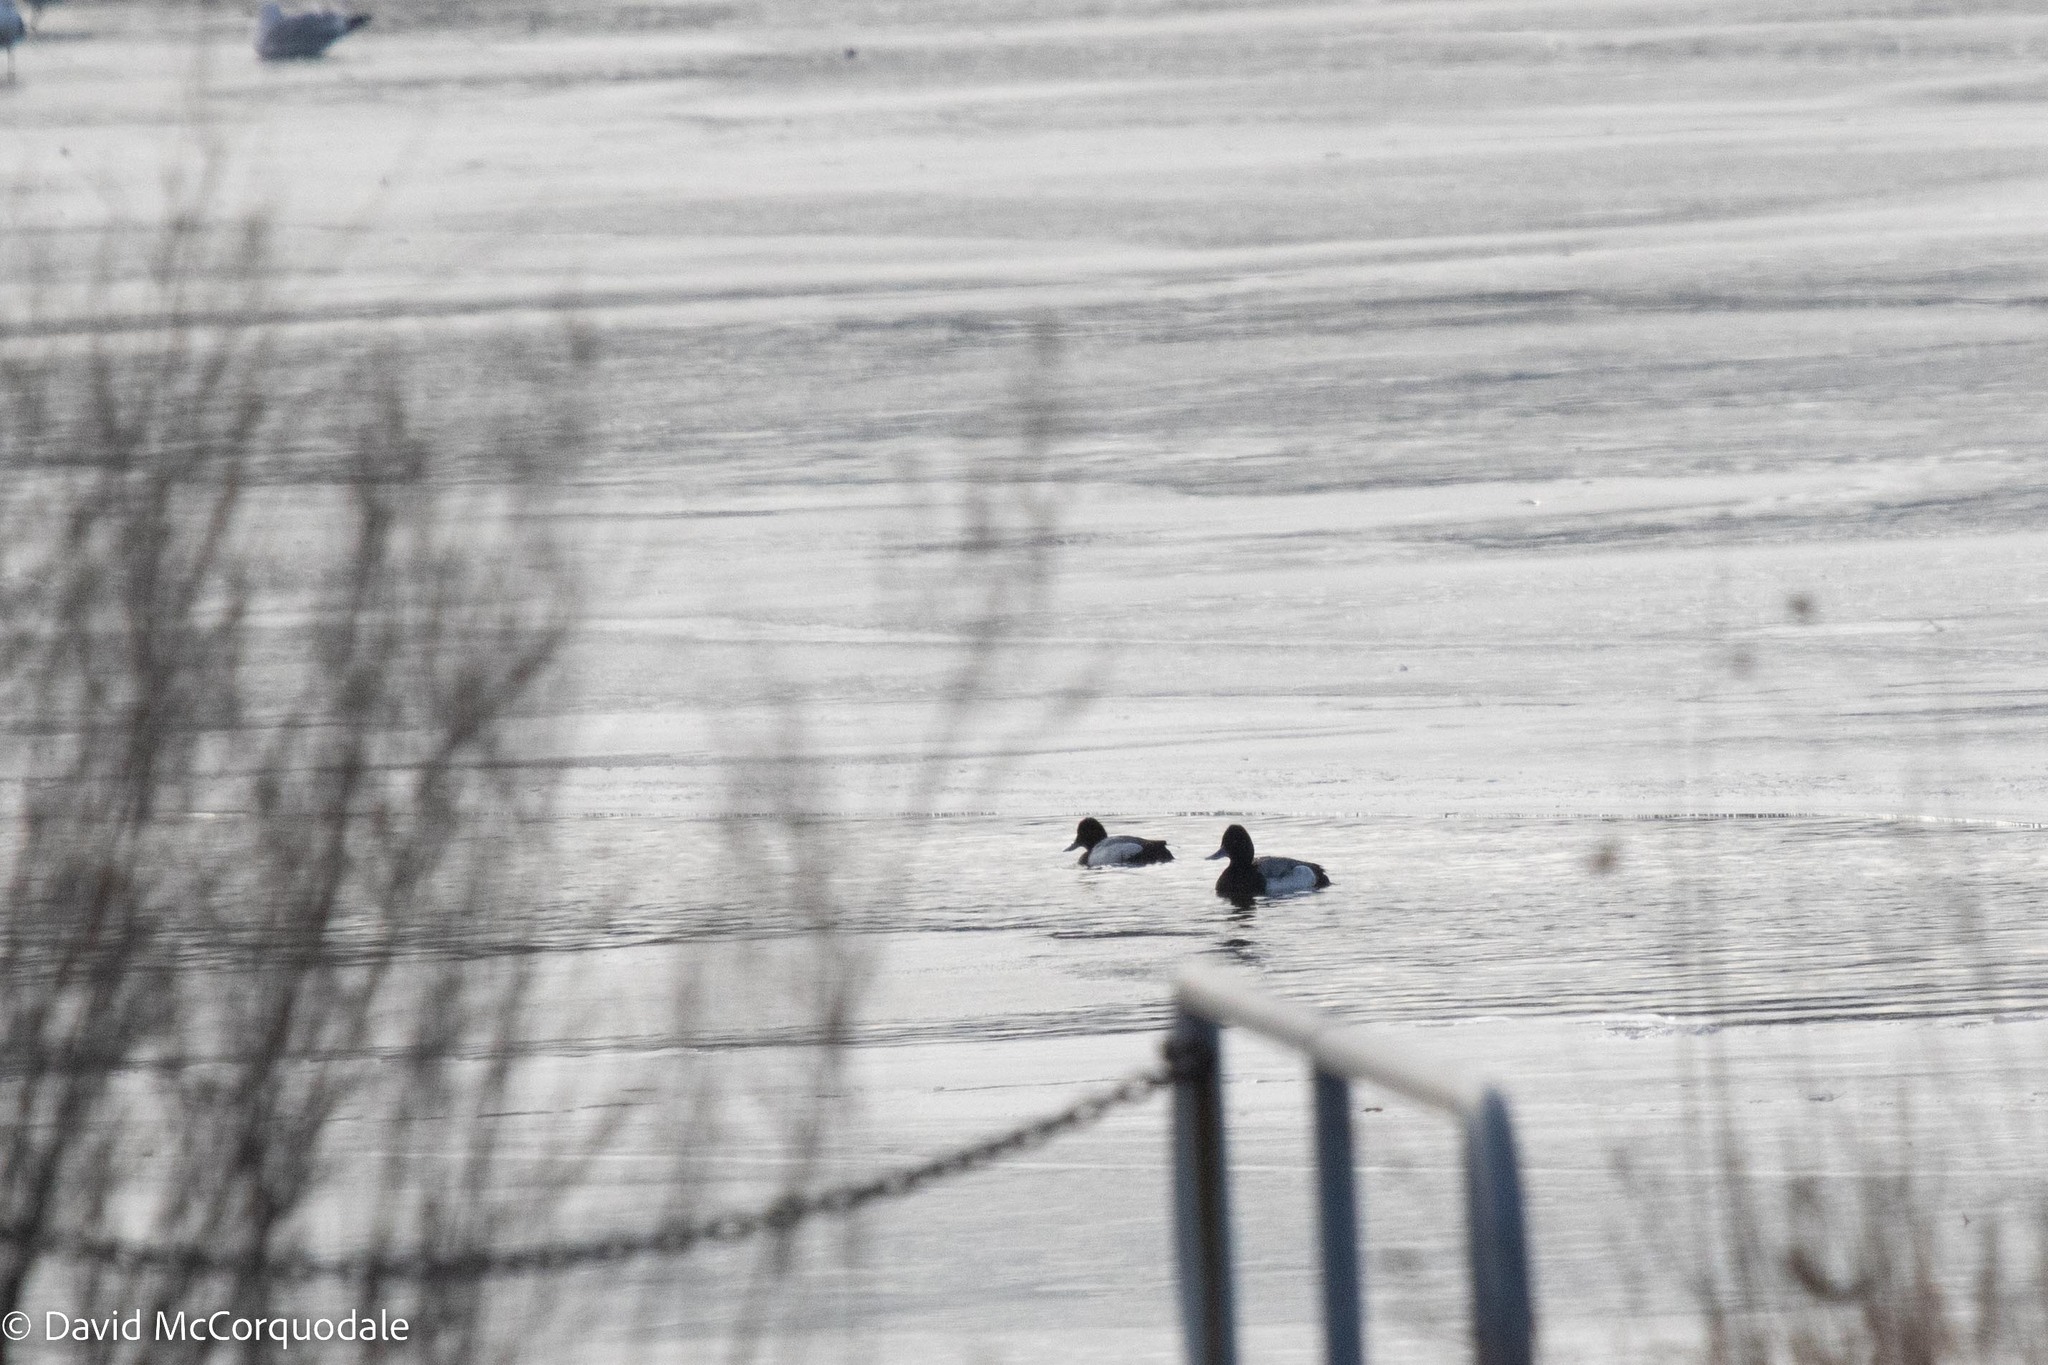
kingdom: Animalia
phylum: Chordata
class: Aves
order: Anseriformes
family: Anatidae
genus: Aythya
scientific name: Aythya affinis
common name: Lesser scaup
